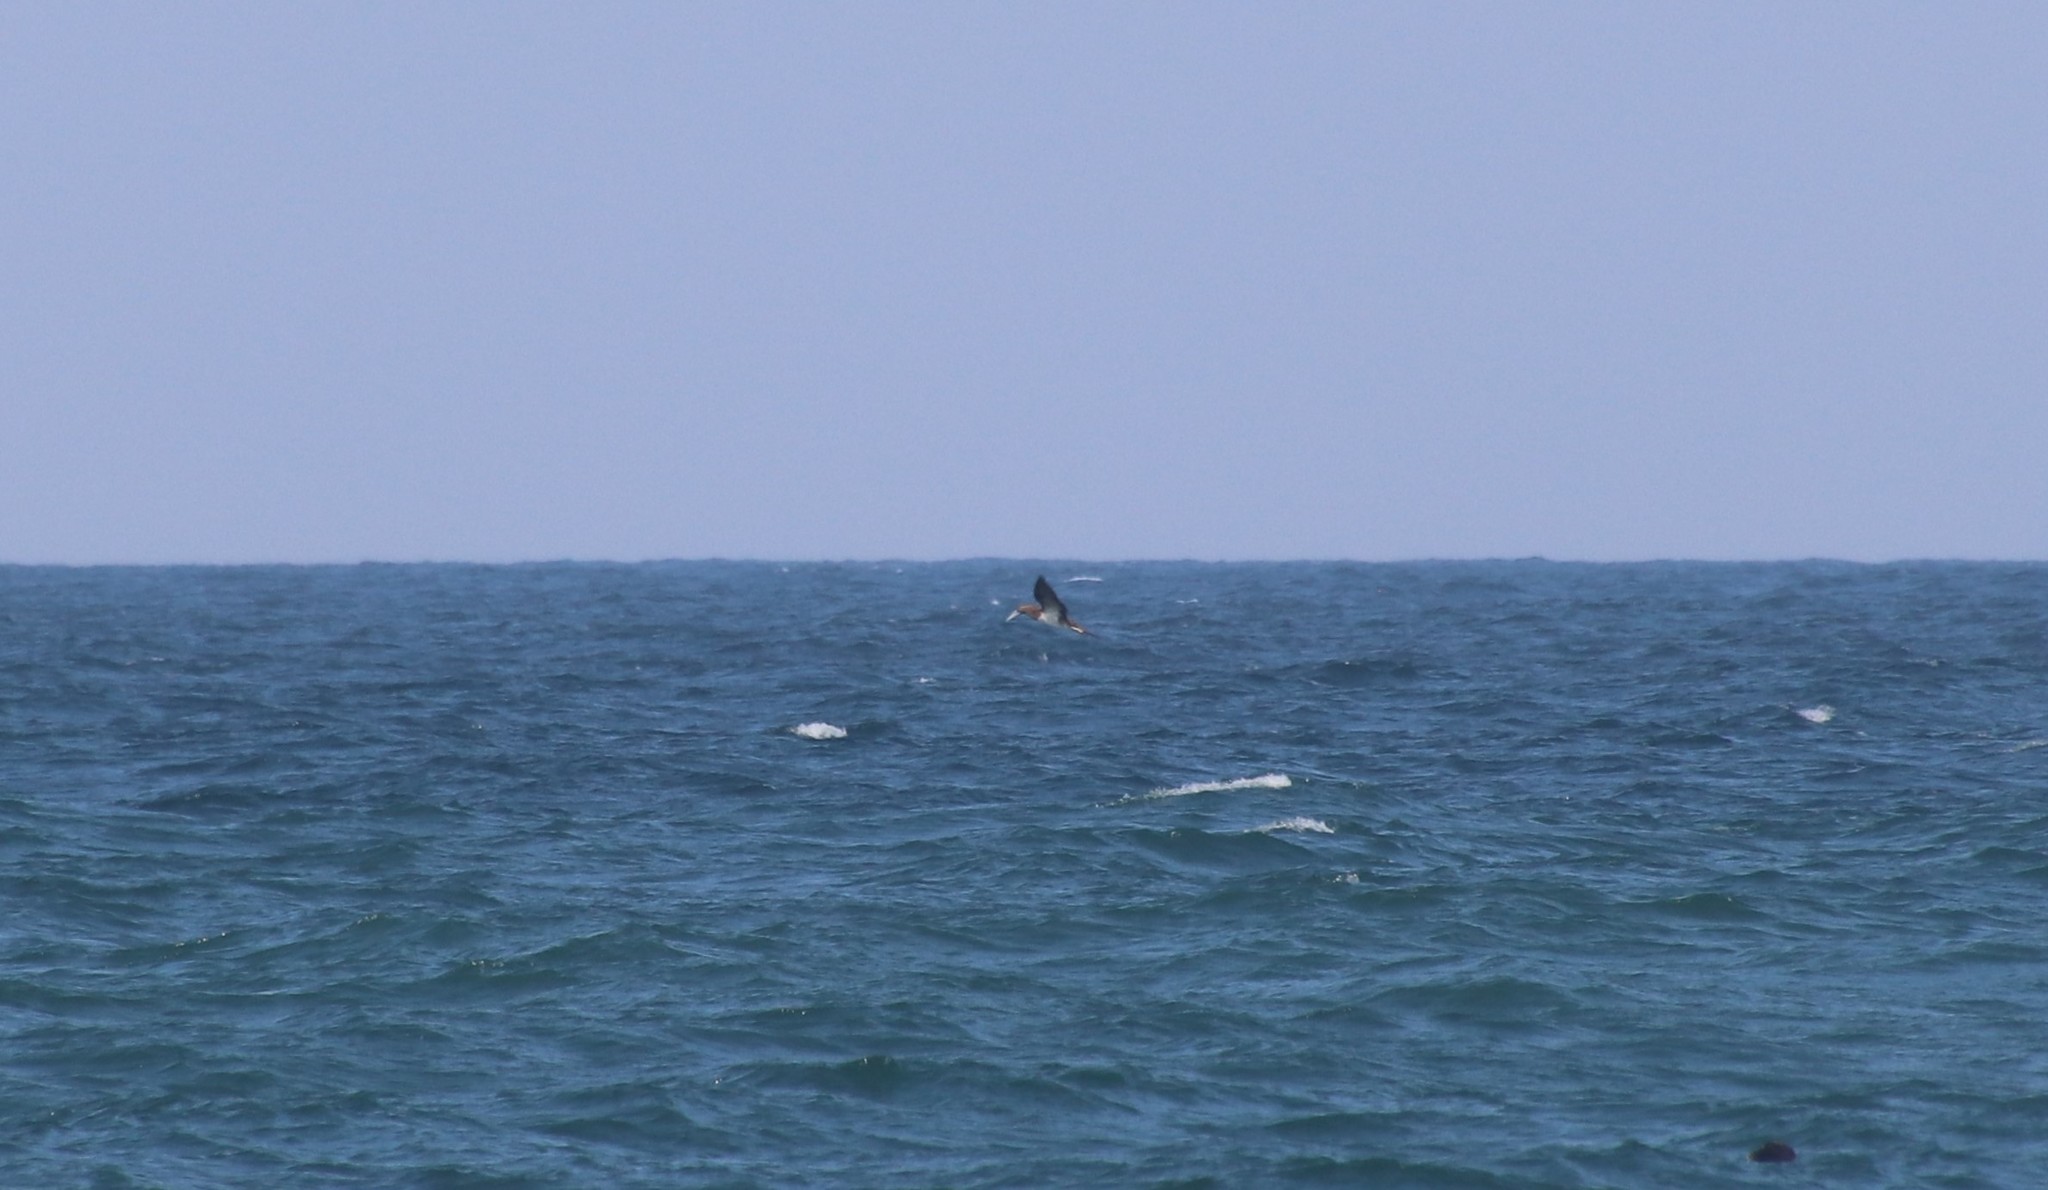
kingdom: Animalia
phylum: Chordata
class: Aves
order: Suliformes
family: Sulidae
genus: Sula
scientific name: Sula leucogaster
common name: Brown booby
